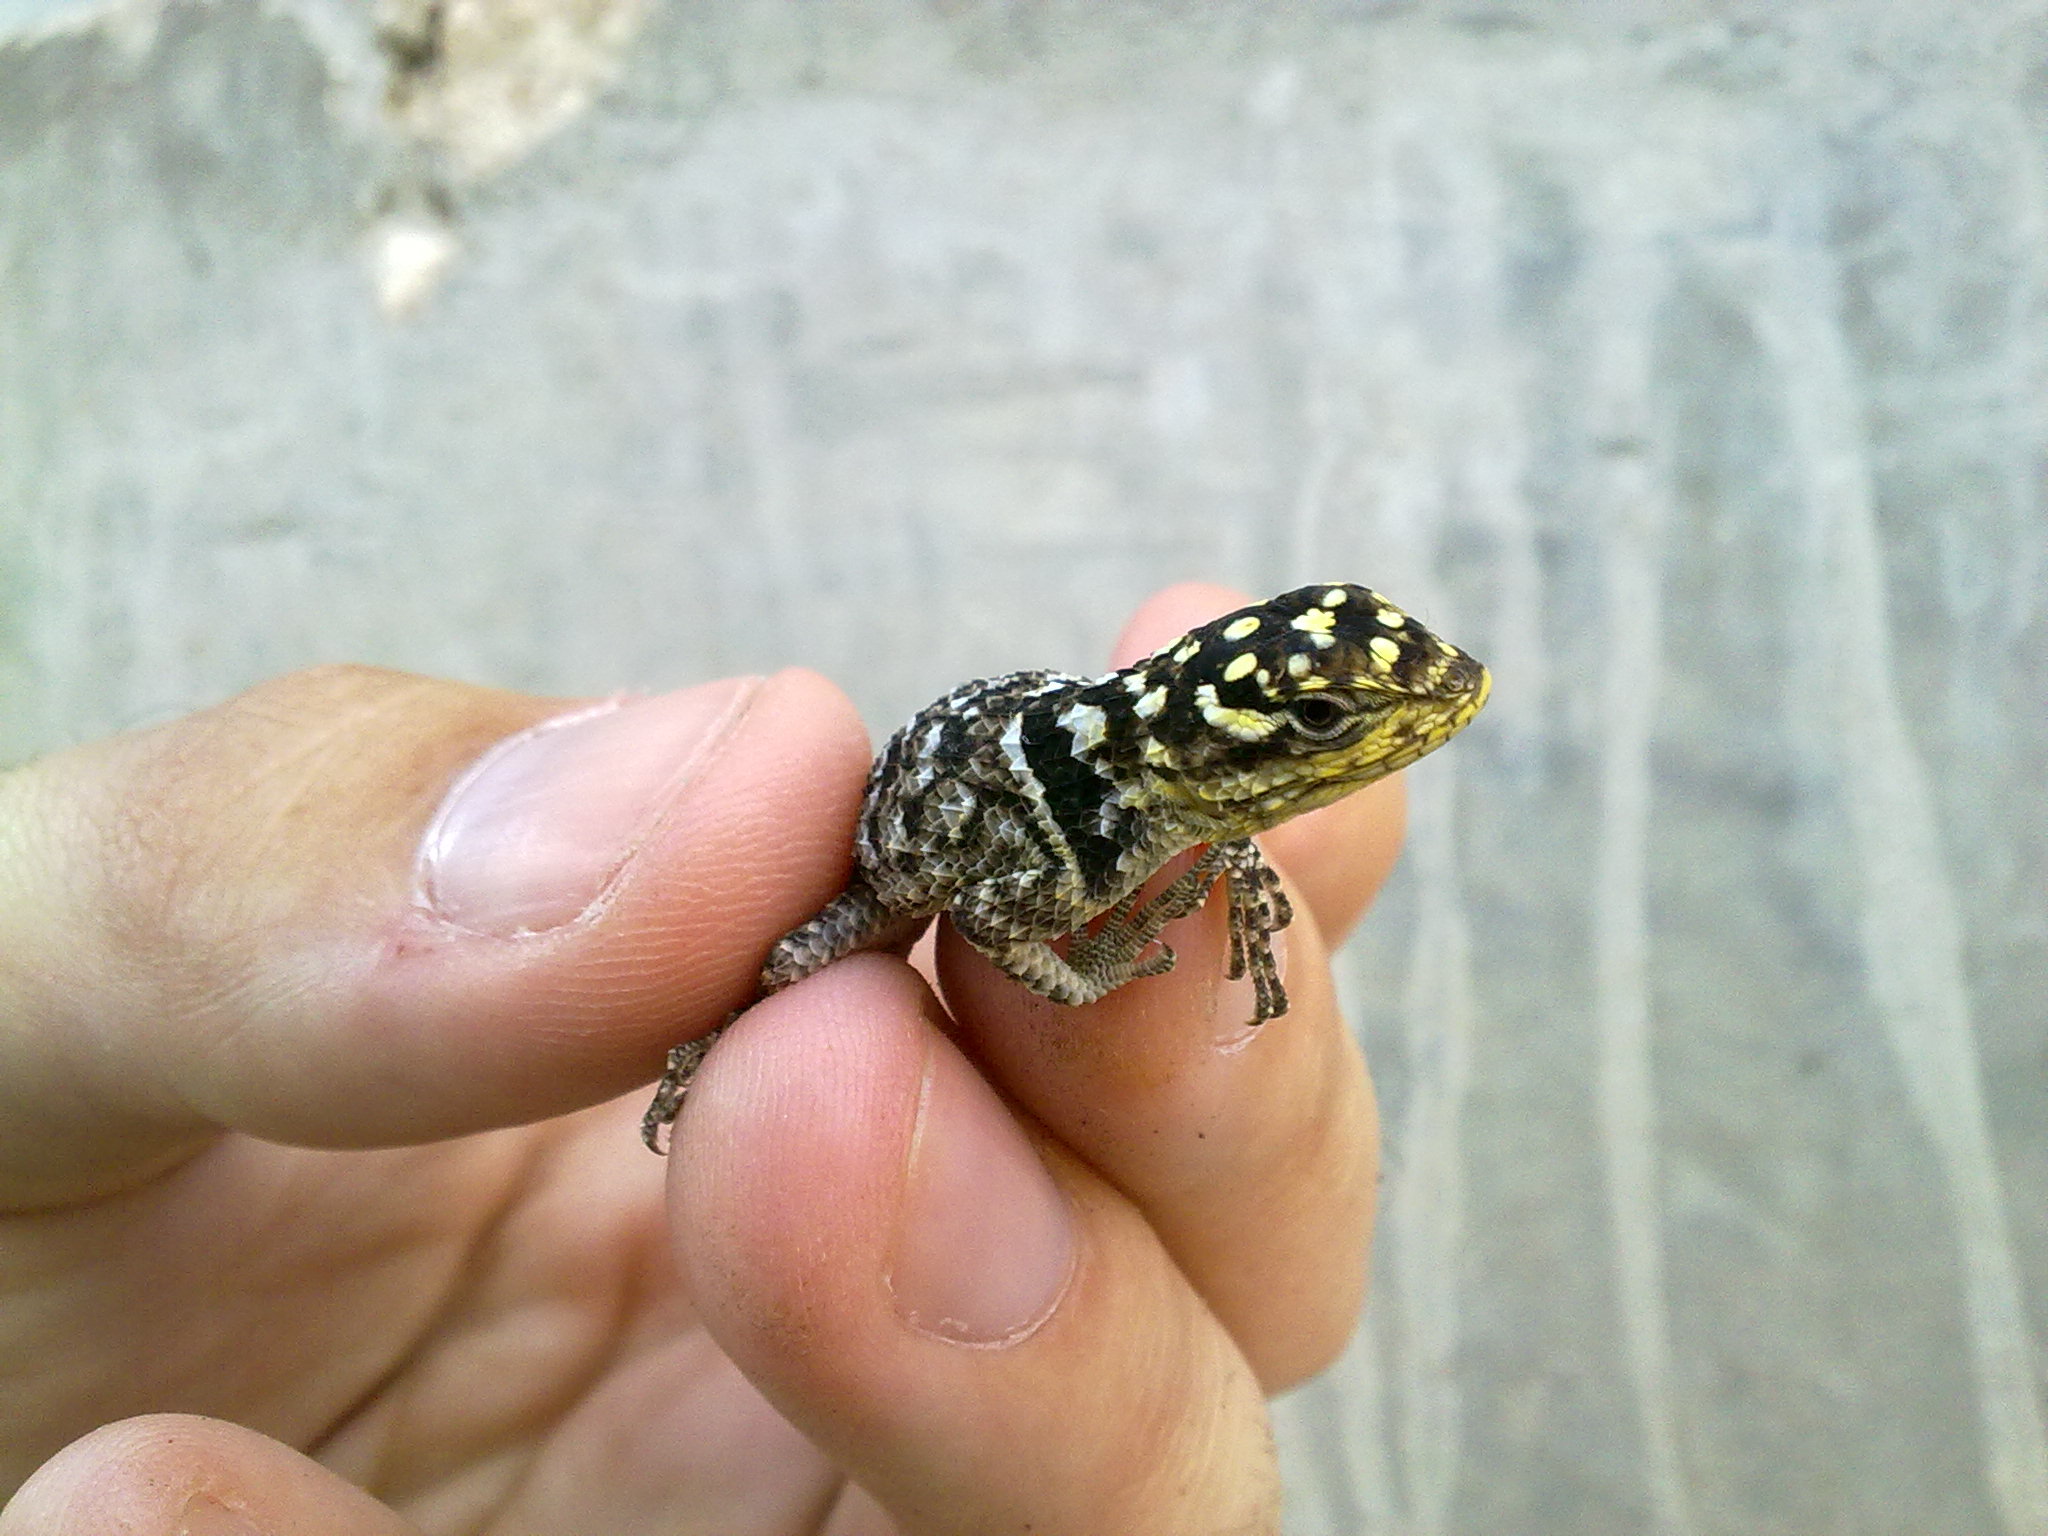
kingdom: Animalia
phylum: Chordata
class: Squamata
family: Phrynosomatidae
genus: Sceloporus
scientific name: Sceloporus serrifer
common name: Blue spiny lizard
